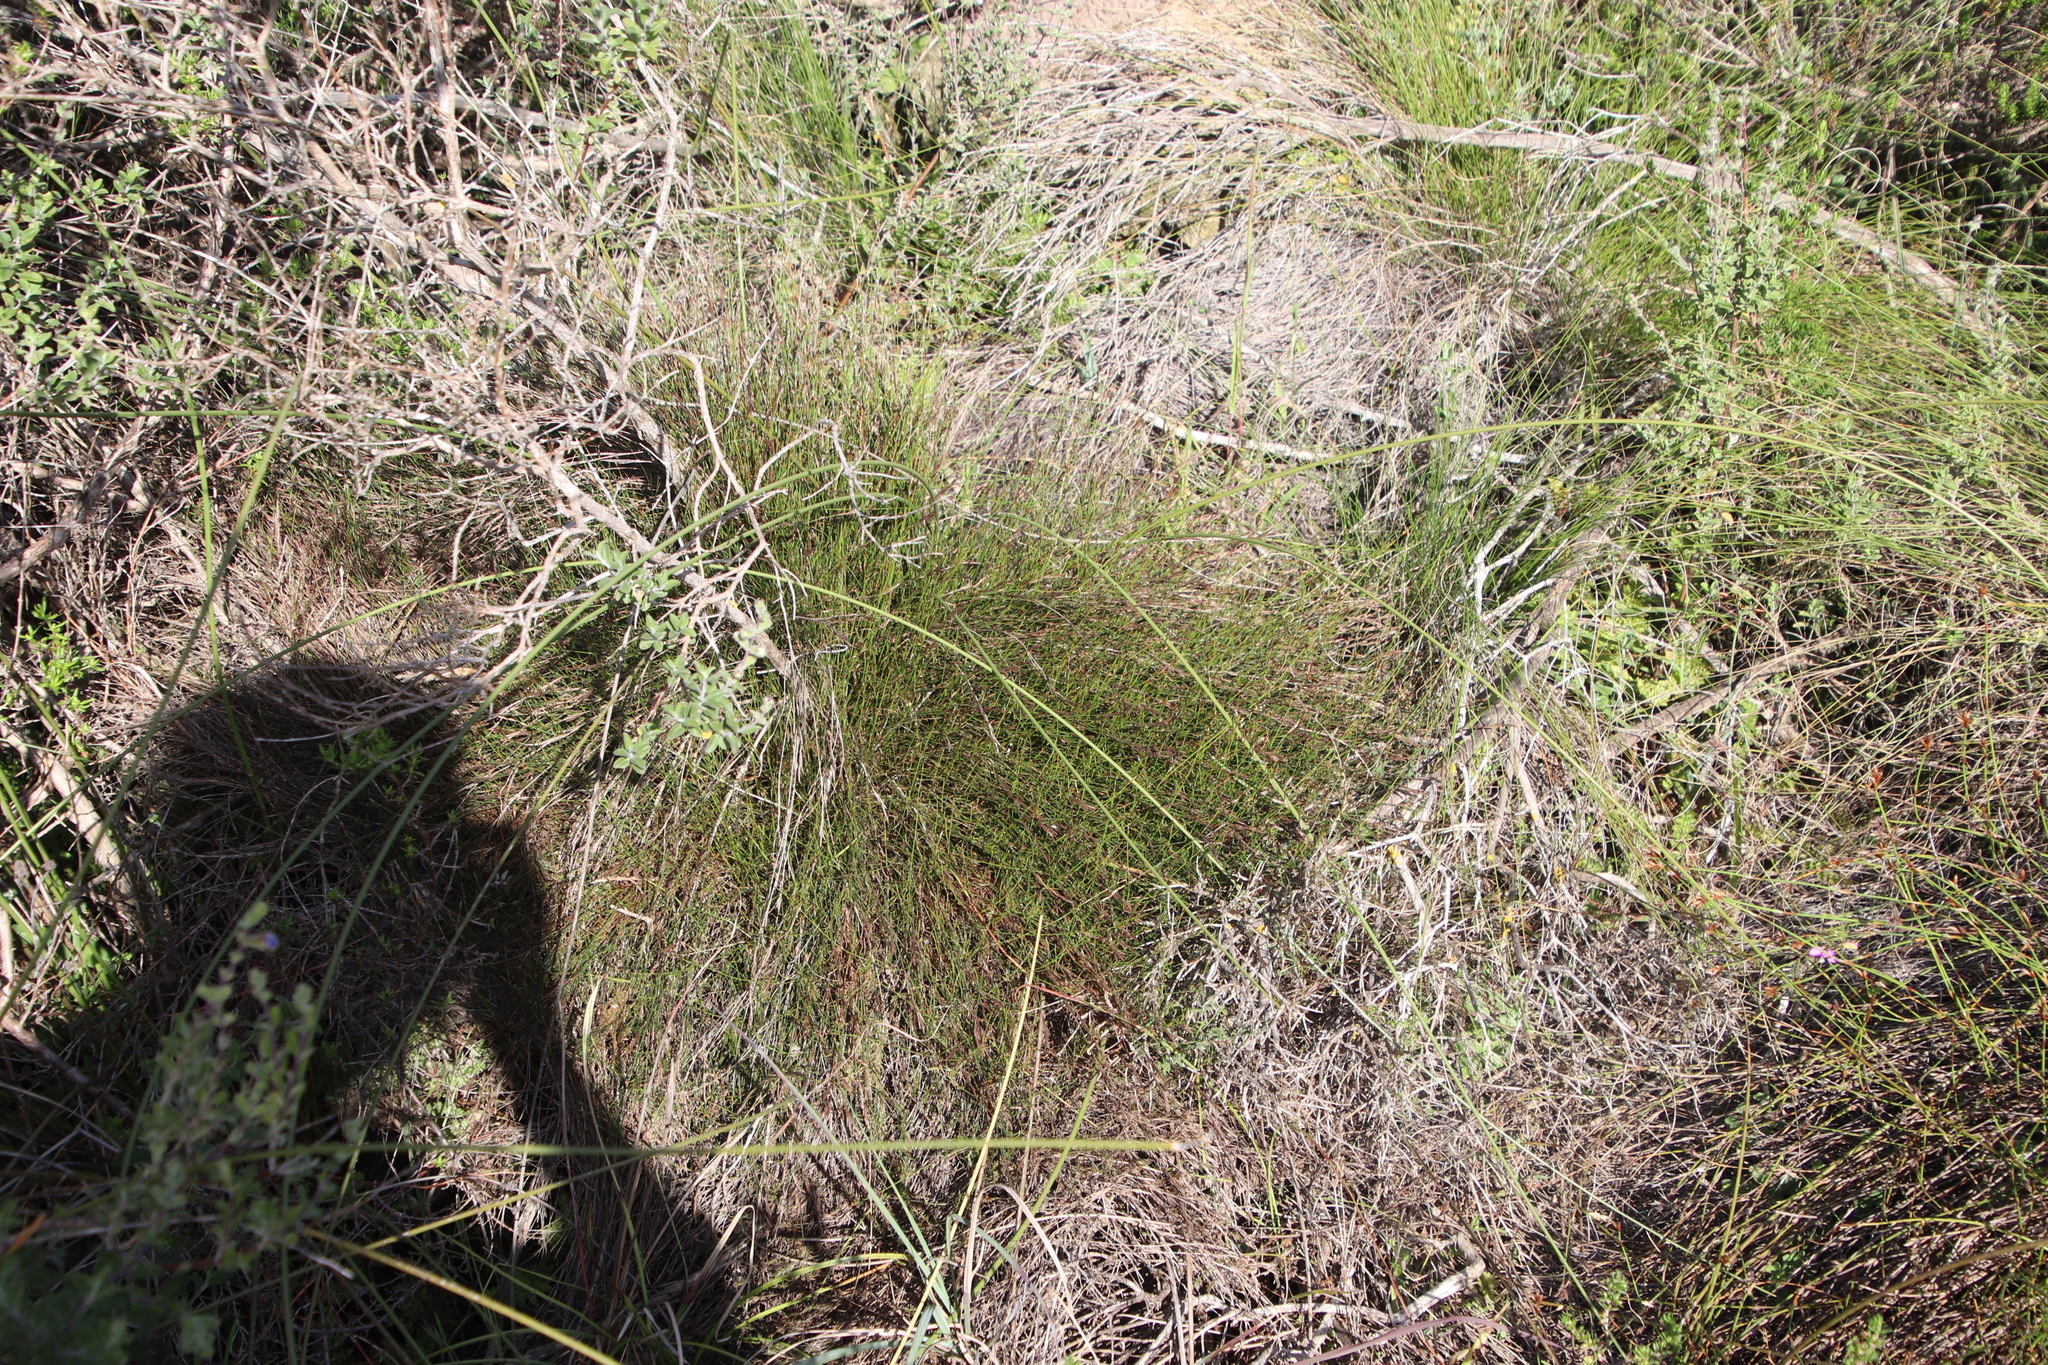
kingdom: Plantae
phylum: Tracheophyta
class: Liliopsida
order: Poales
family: Restionaceae
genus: Restio
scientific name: Restio capensis
